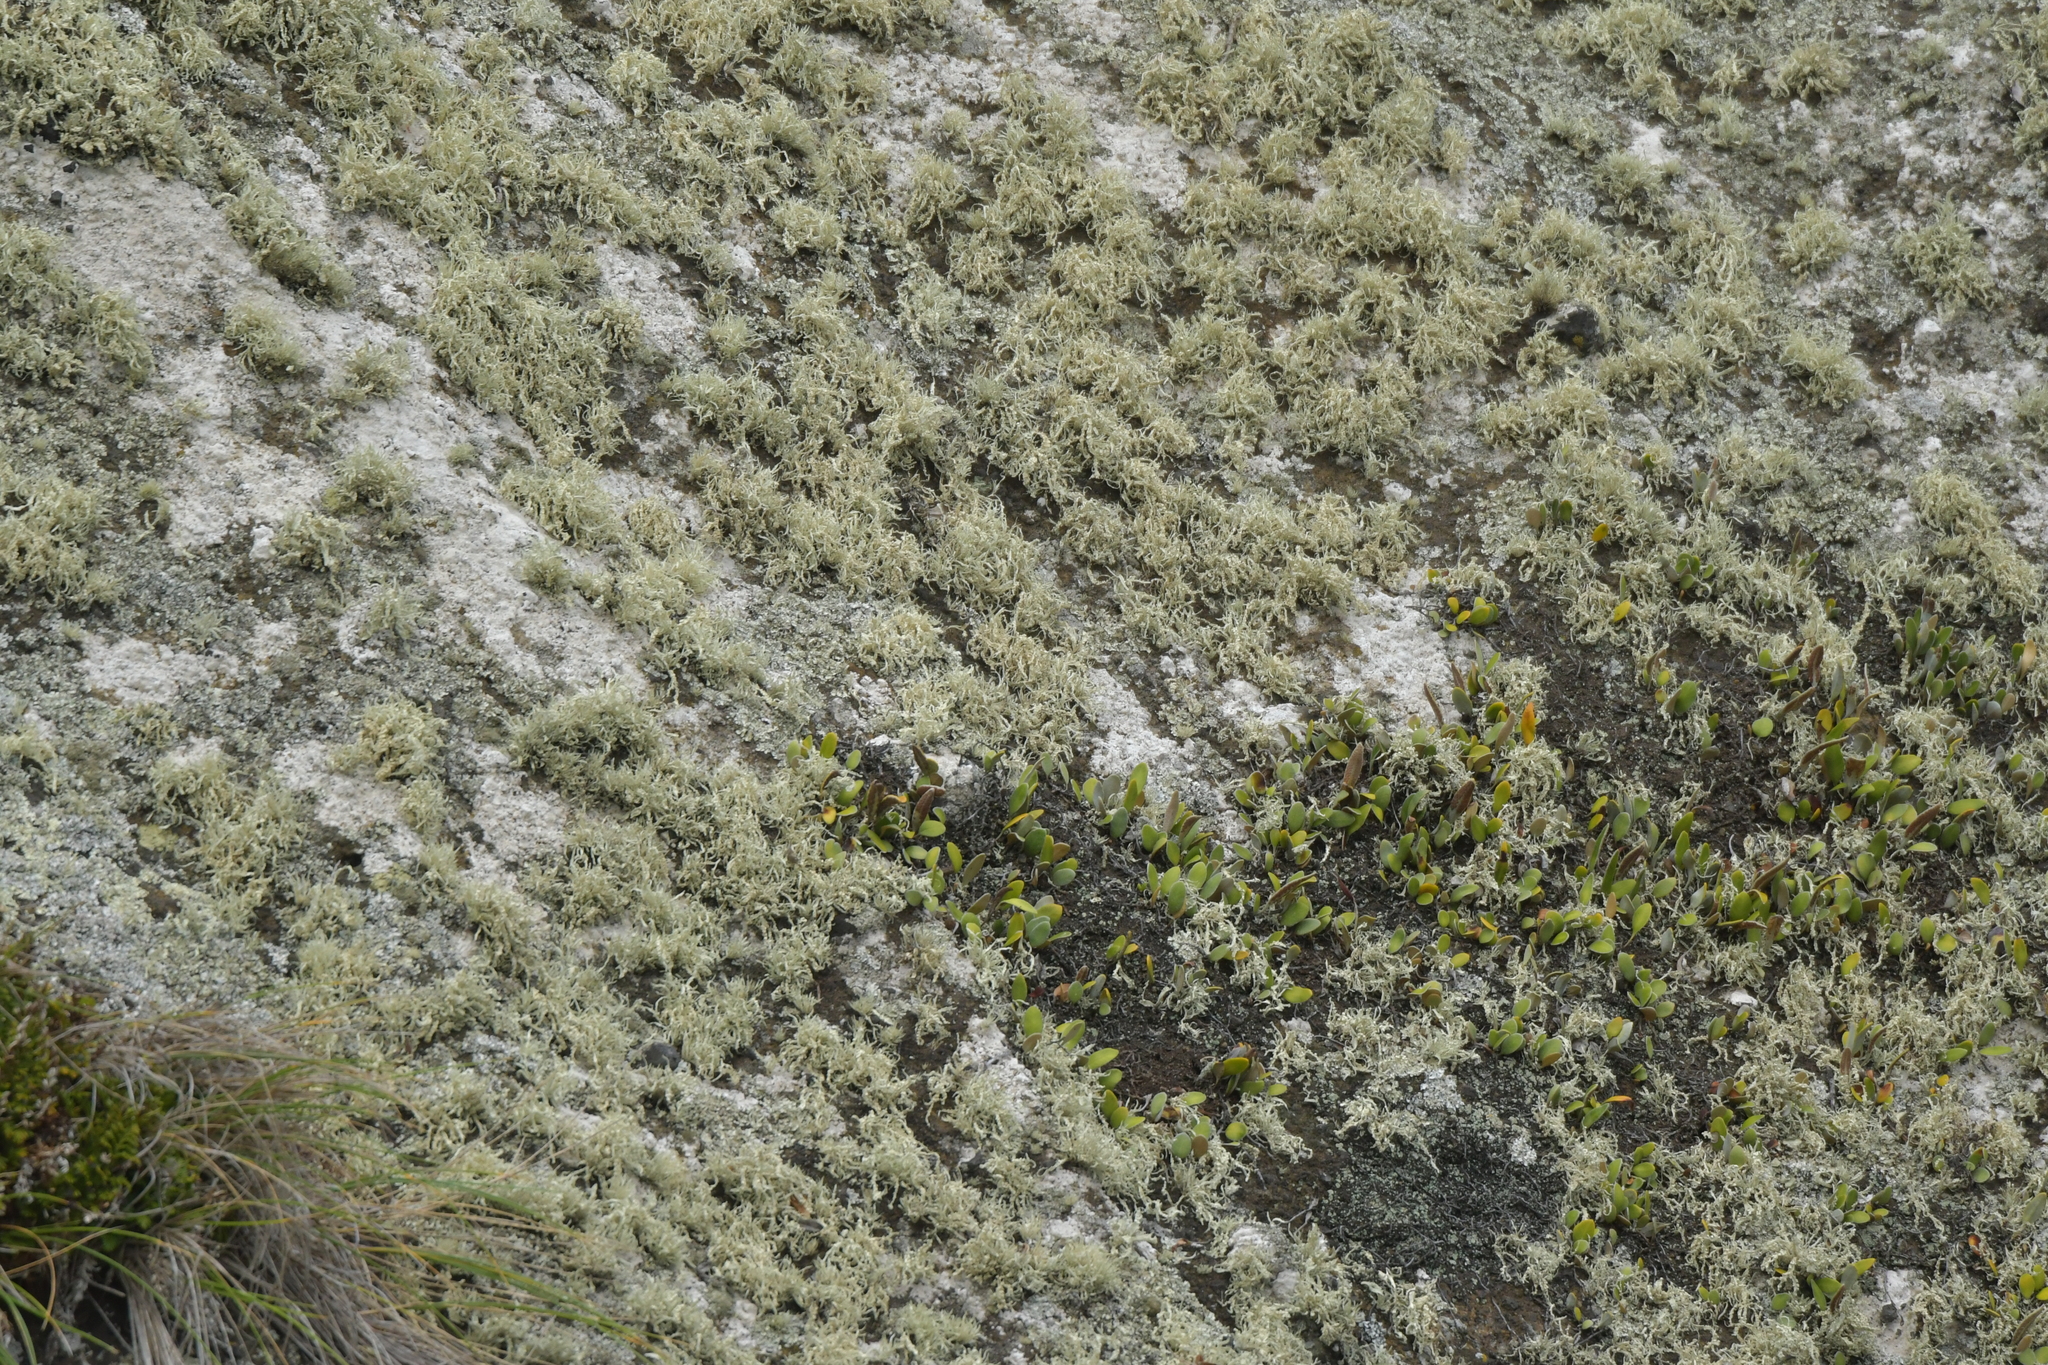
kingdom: Plantae
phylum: Tracheophyta
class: Polypodiopsida
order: Polypodiales
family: Polypodiaceae
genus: Pyrrosia
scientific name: Pyrrosia eleagnifolia
